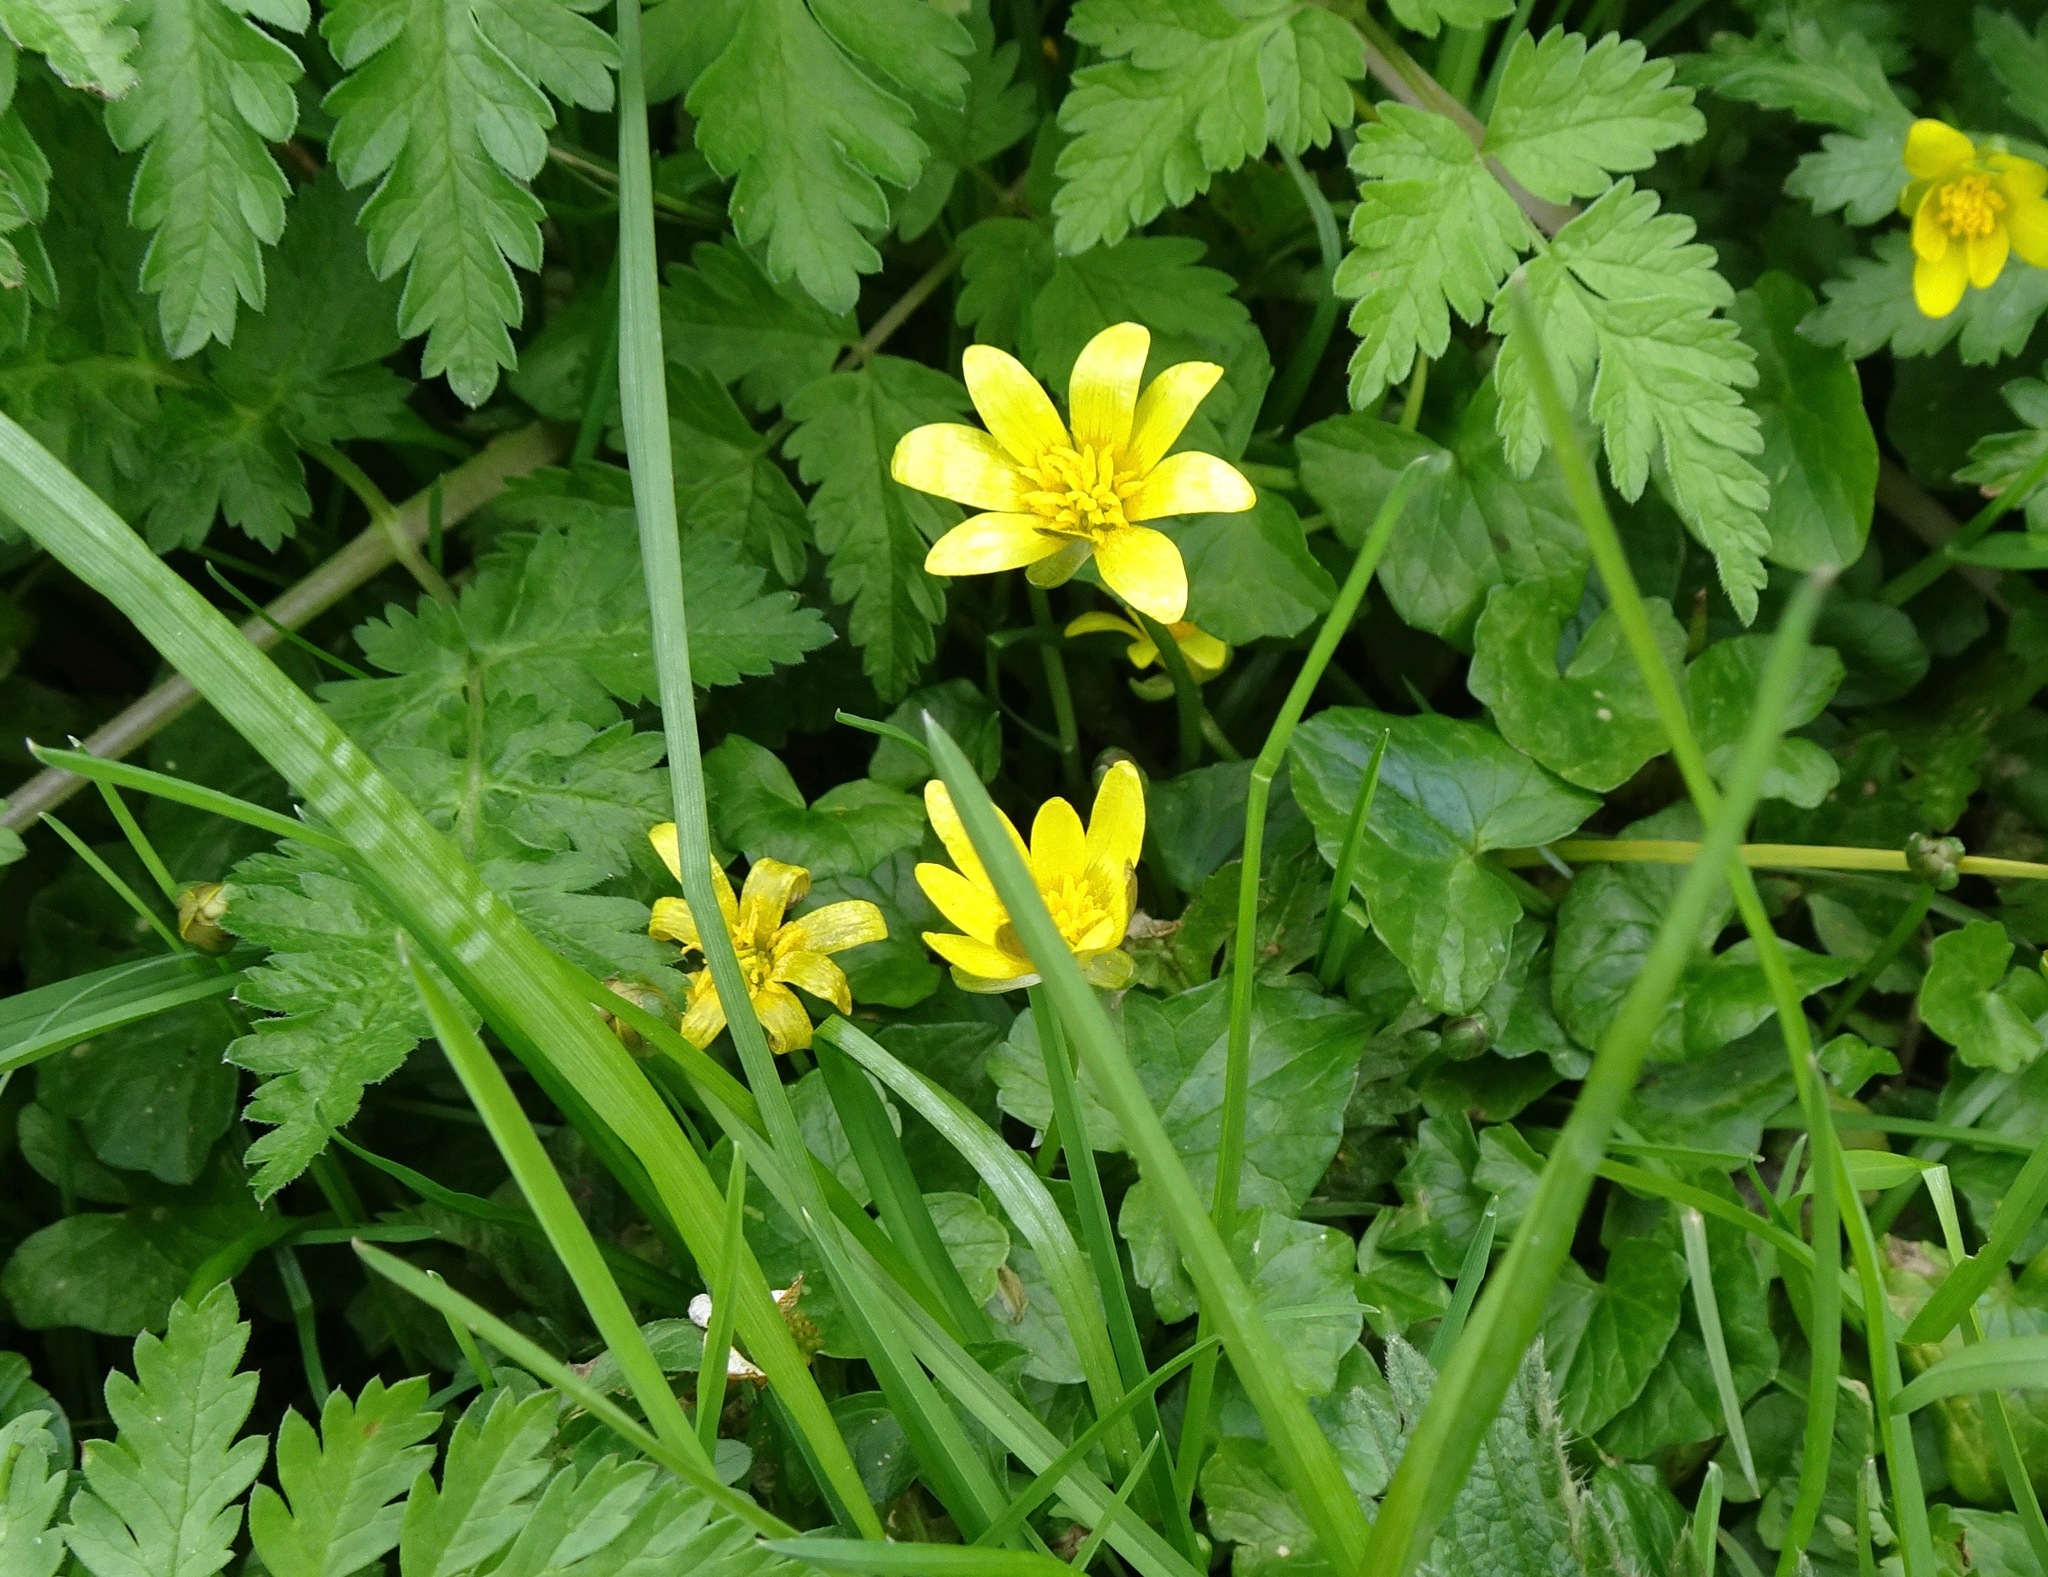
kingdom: Plantae
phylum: Tracheophyta
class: Magnoliopsida
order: Ranunculales
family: Ranunculaceae
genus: Ficaria
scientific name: Ficaria verna
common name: Lesser celandine
